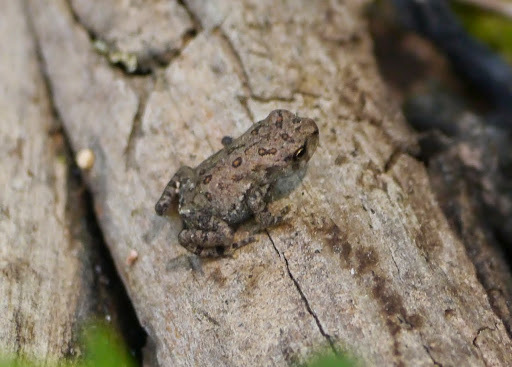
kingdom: Animalia
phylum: Chordata
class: Amphibia
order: Anura
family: Bufonidae
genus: Anaxyrus
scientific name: Anaxyrus fowleri
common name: Fowler's toad
